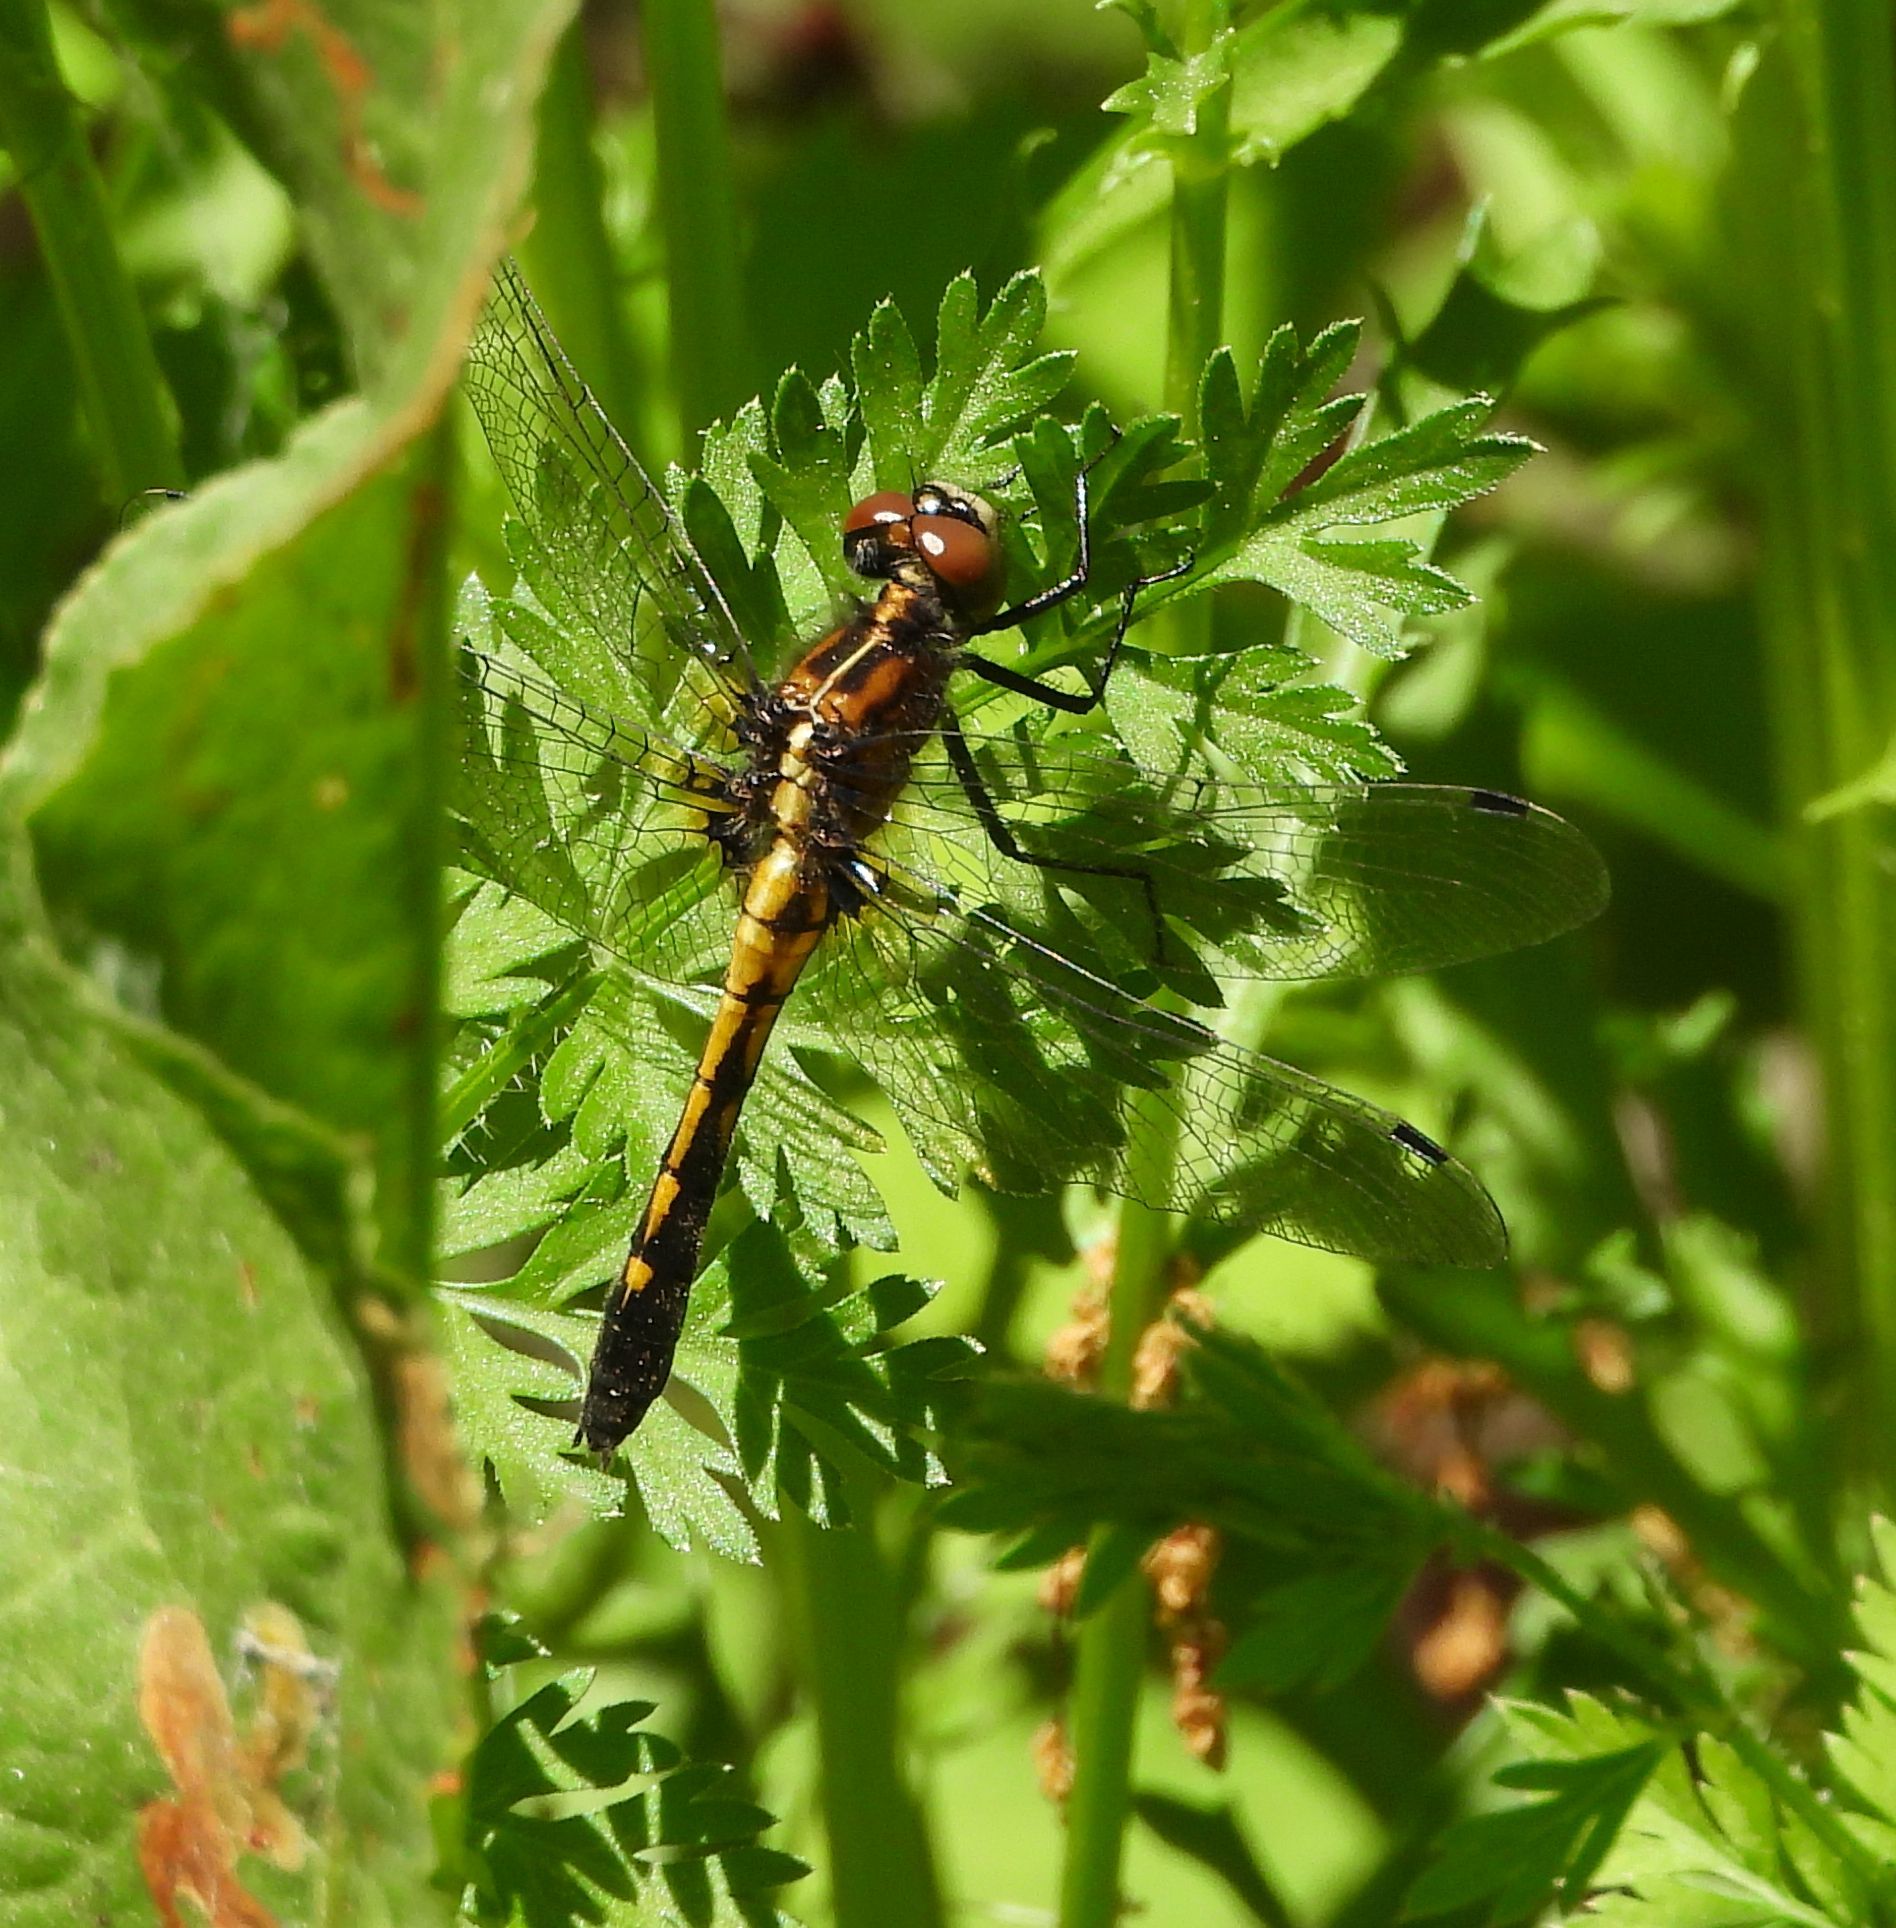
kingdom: Animalia
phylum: Arthropoda
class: Insecta
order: Odonata
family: Libellulidae
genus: Leucorrhinia
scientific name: Leucorrhinia intacta
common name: Dot-tailed whiteface
